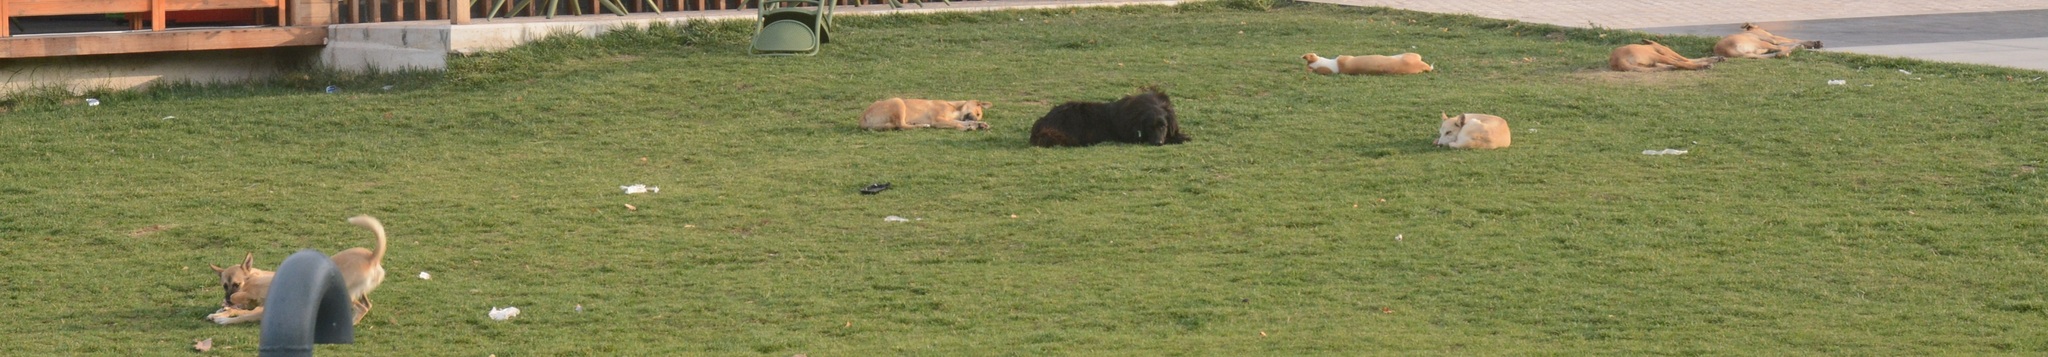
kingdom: Animalia
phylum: Chordata
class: Mammalia
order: Carnivora
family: Canidae
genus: Canis
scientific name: Canis lupus
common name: Gray wolf
